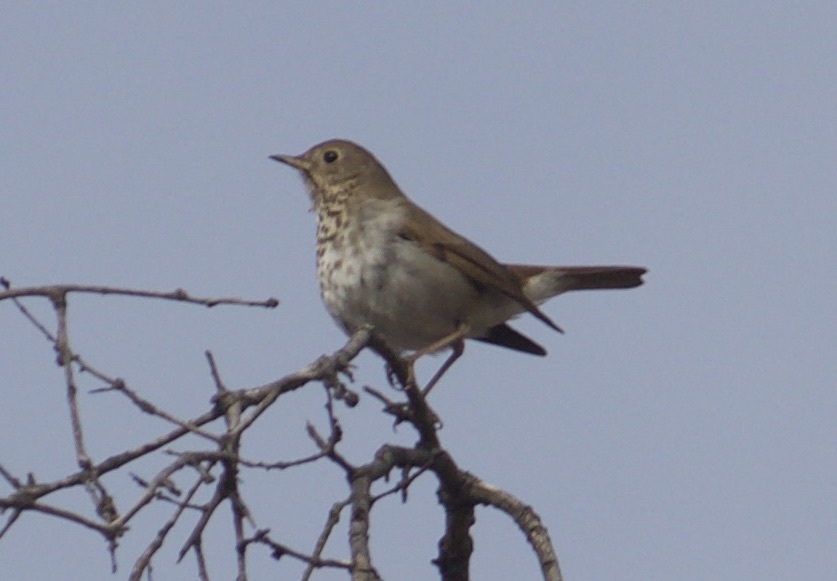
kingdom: Animalia
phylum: Chordata
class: Aves
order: Passeriformes
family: Turdidae
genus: Catharus
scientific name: Catharus guttatus
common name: Hermit thrush
